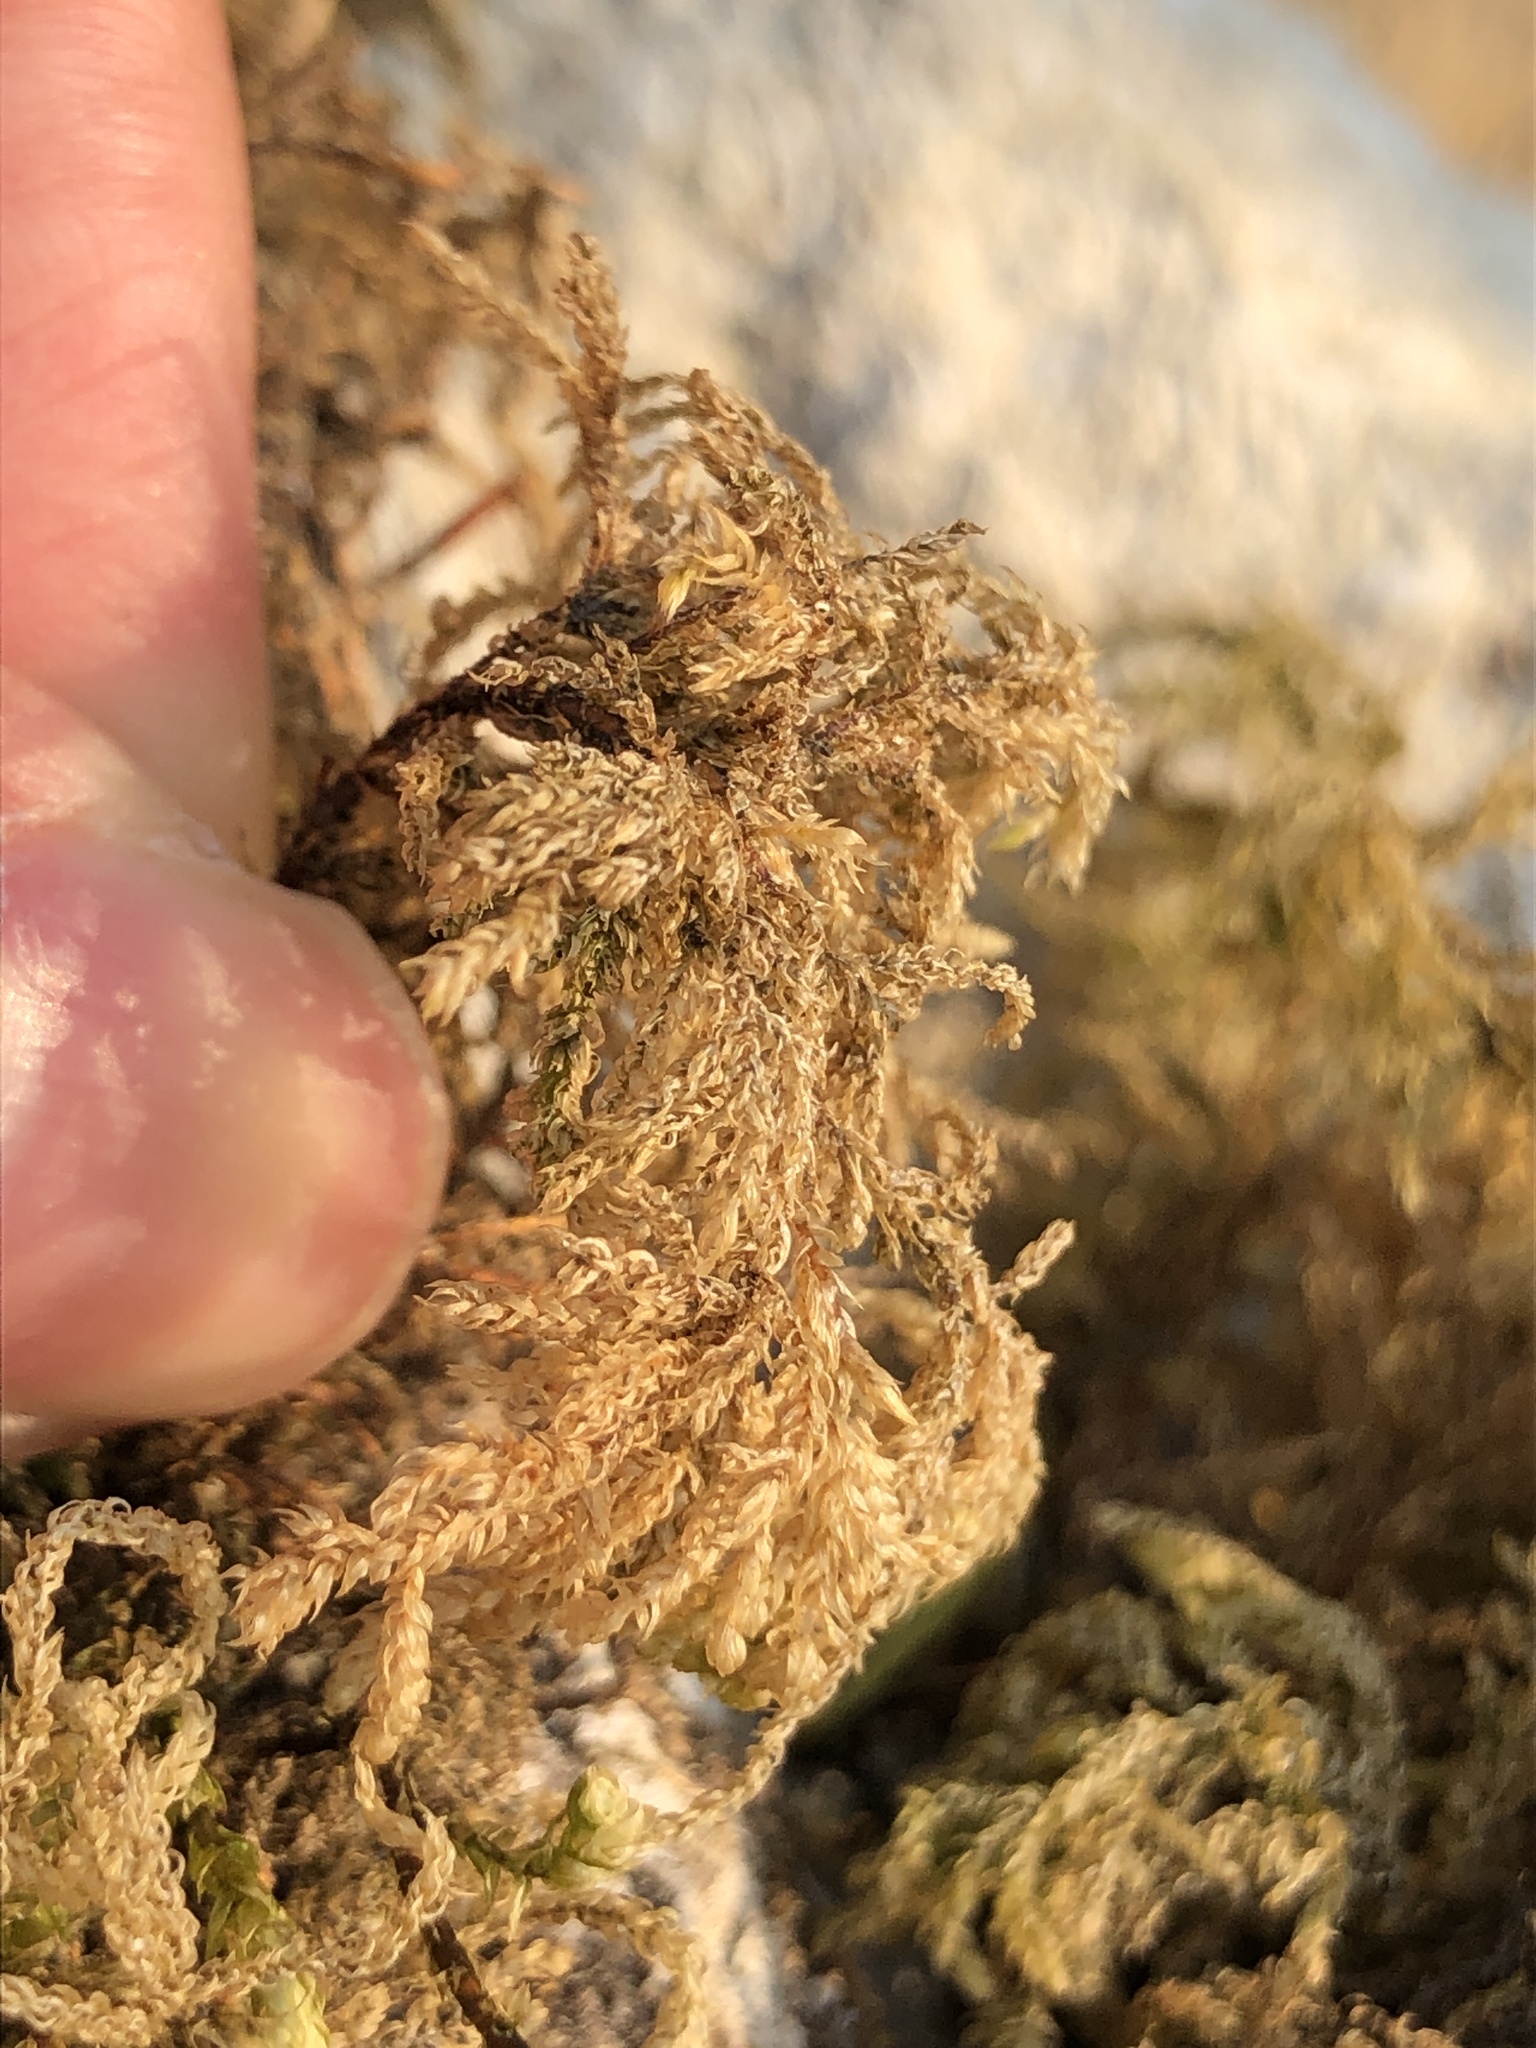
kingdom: Plantae
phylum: Bryophyta
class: Bryopsida
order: Hypnales
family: Neckeraceae
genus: Thamnobryum
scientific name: Thamnobryum alopecurum
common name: Fox-tail feather-moss
